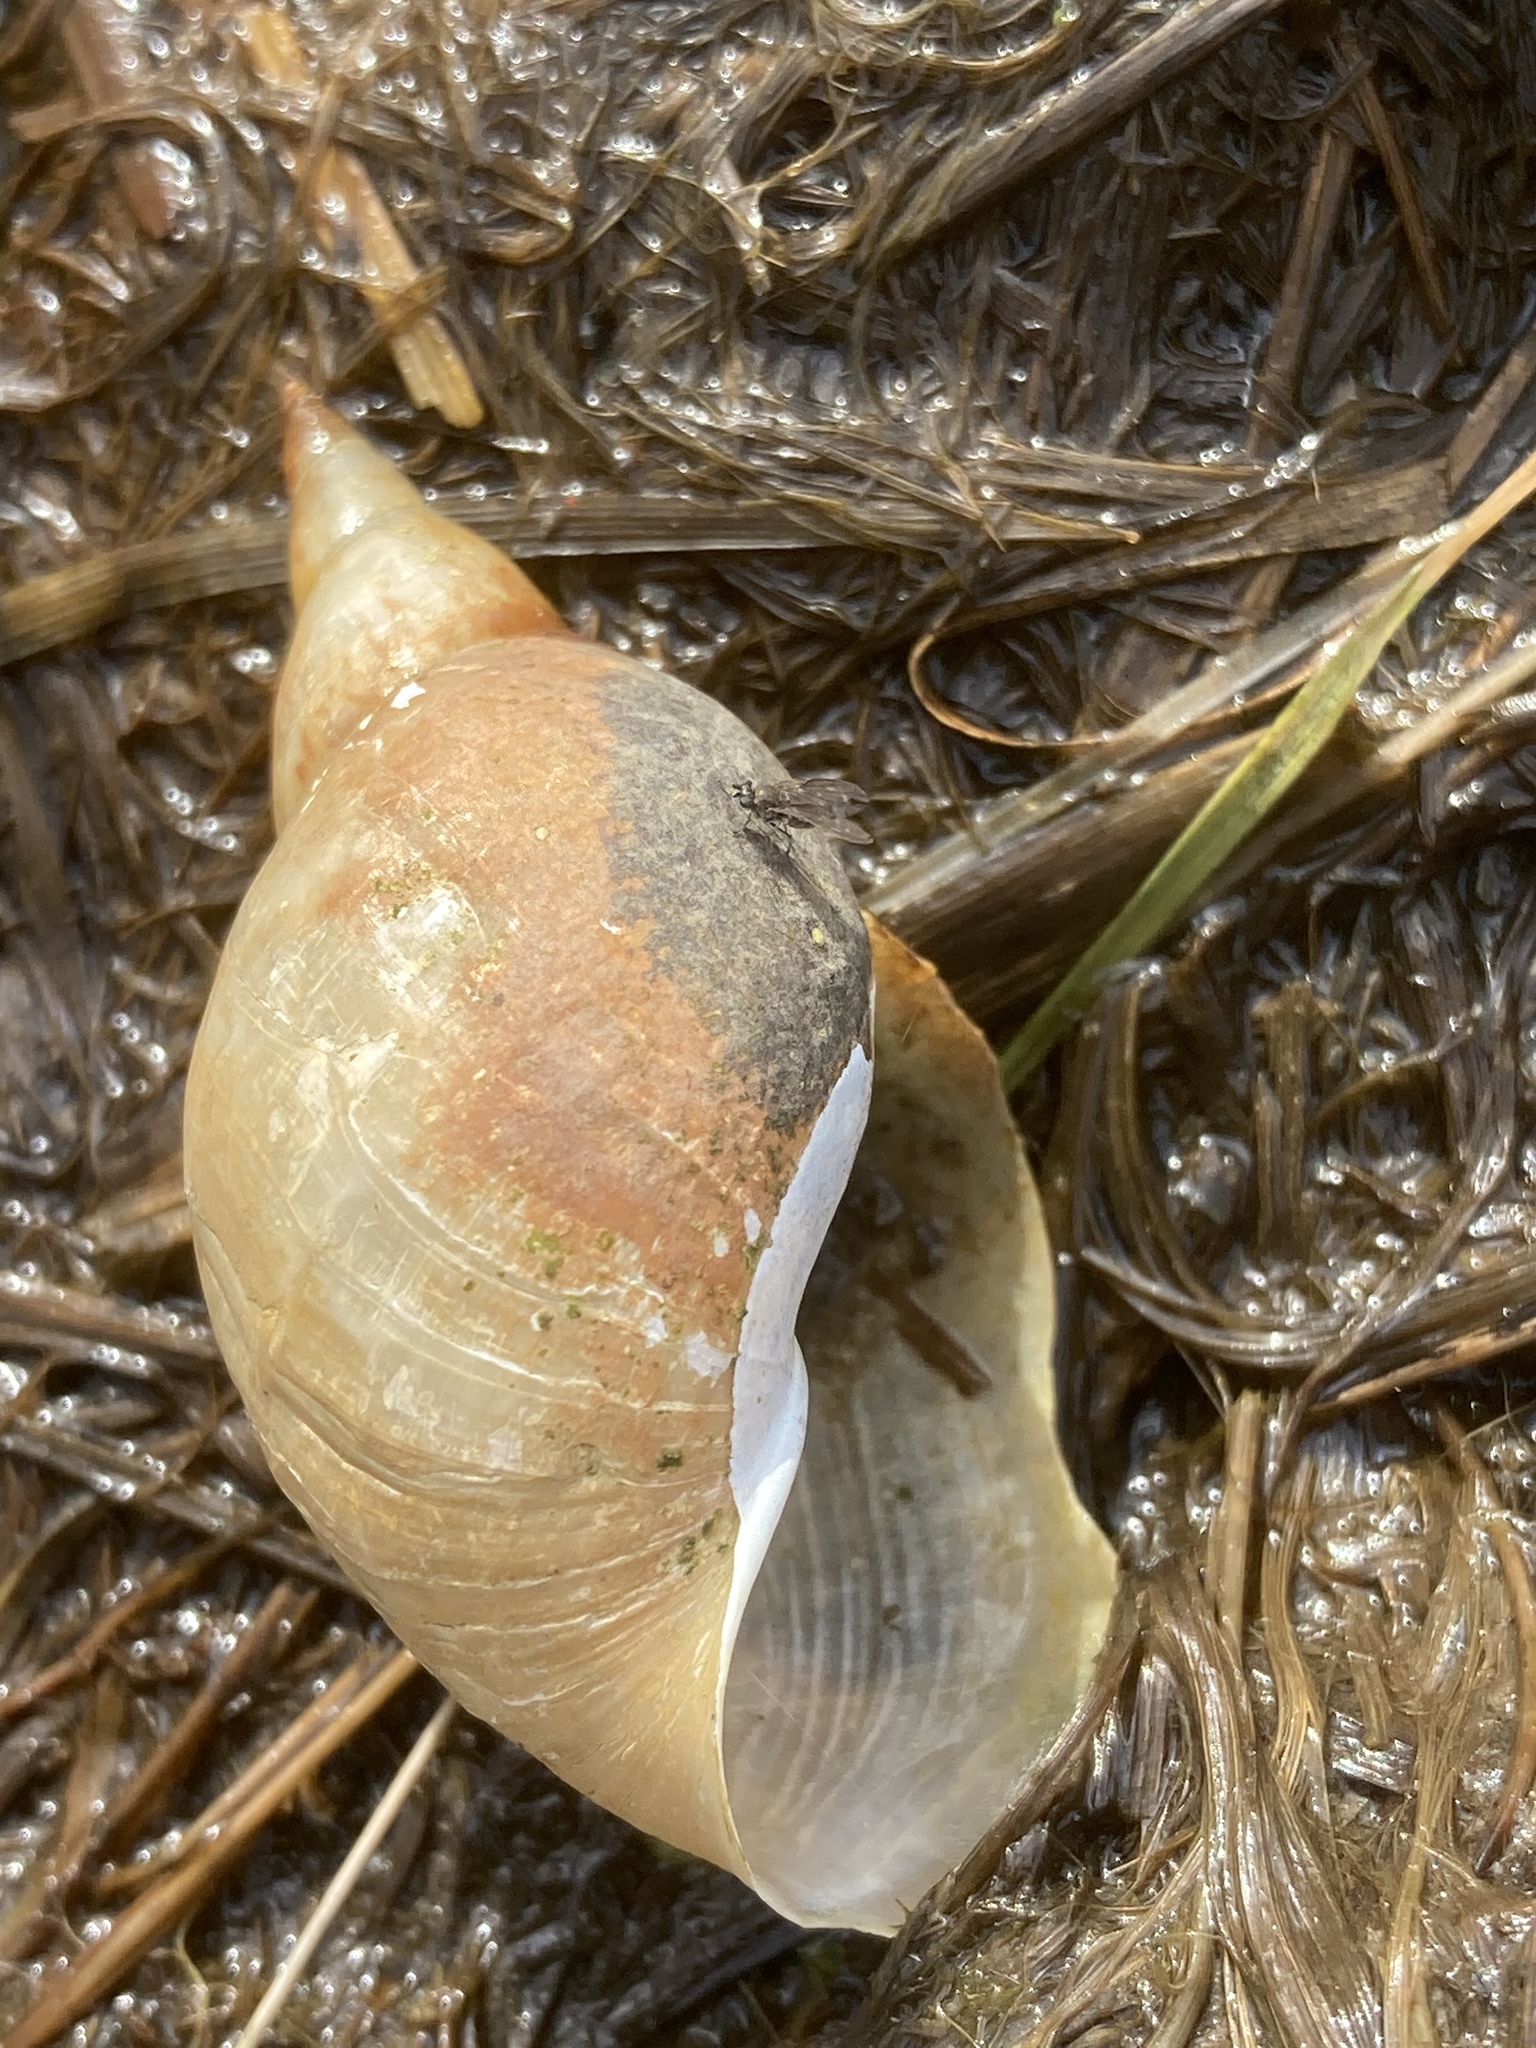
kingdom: Animalia
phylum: Mollusca
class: Gastropoda
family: Lymnaeidae
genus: Lymnaea
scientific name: Lymnaea stagnalis
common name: Great pond snail
